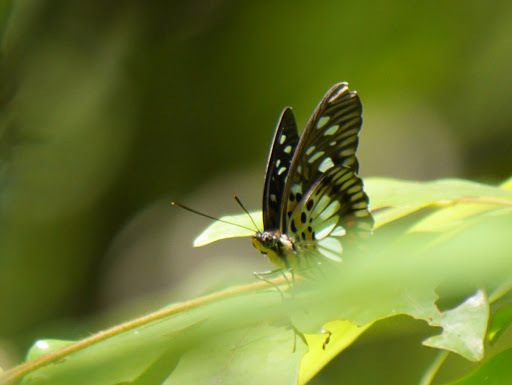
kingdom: Animalia
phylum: Arthropoda
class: Insecta
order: Lepidoptera
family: Nymphalidae
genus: Chloropoea
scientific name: Chloropoea semire
